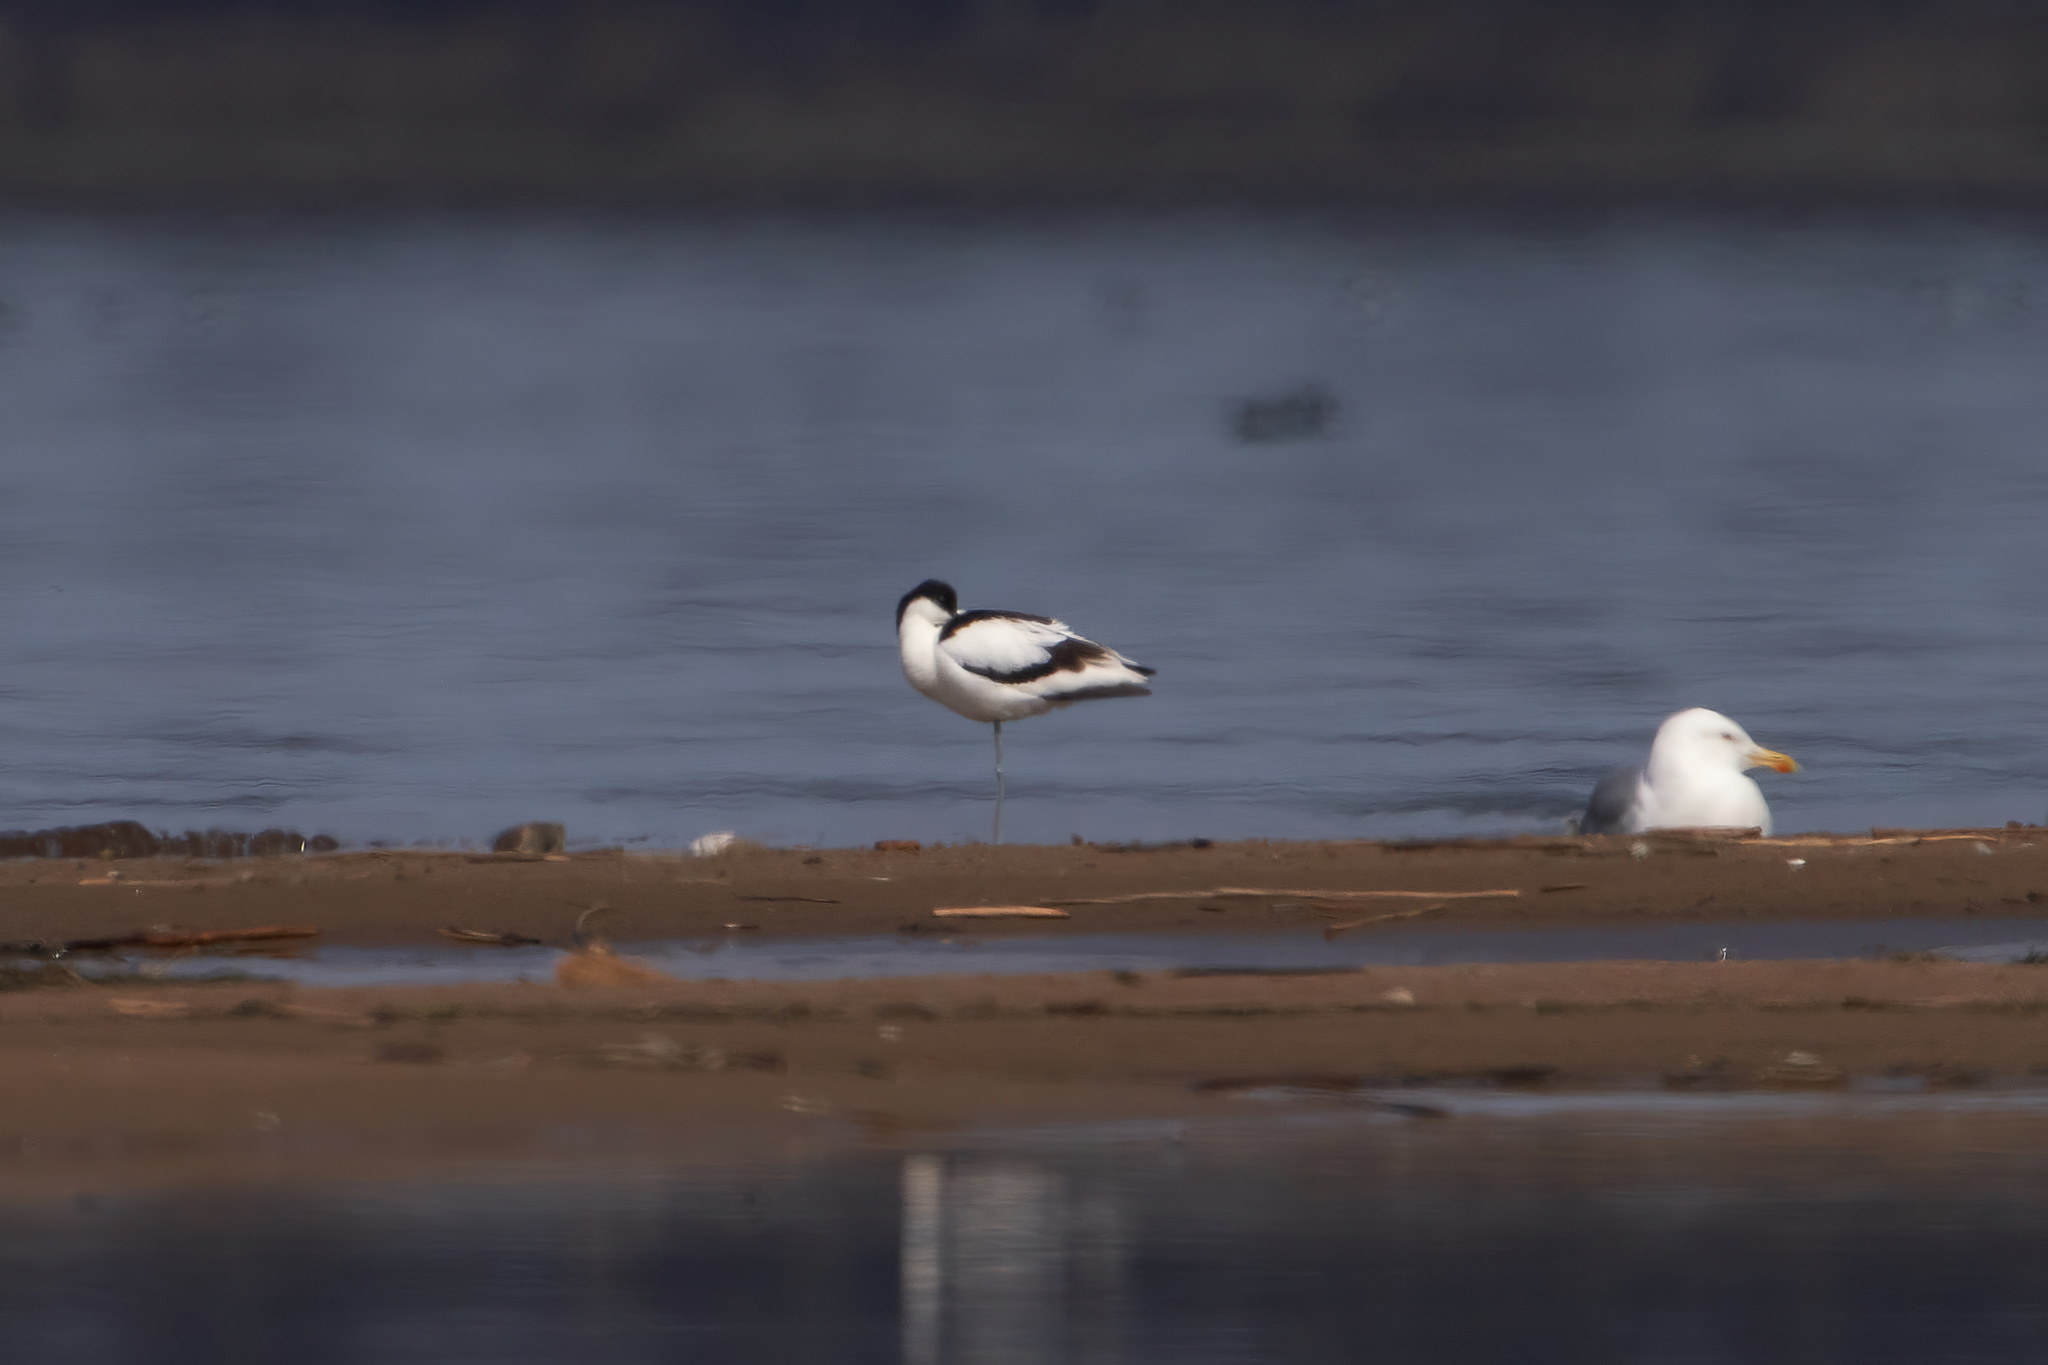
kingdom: Animalia
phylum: Chordata
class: Aves
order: Charadriiformes
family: Recurvirostridae
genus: Recurvirostra
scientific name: Recurvirostra avosetta
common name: Pied avocet
